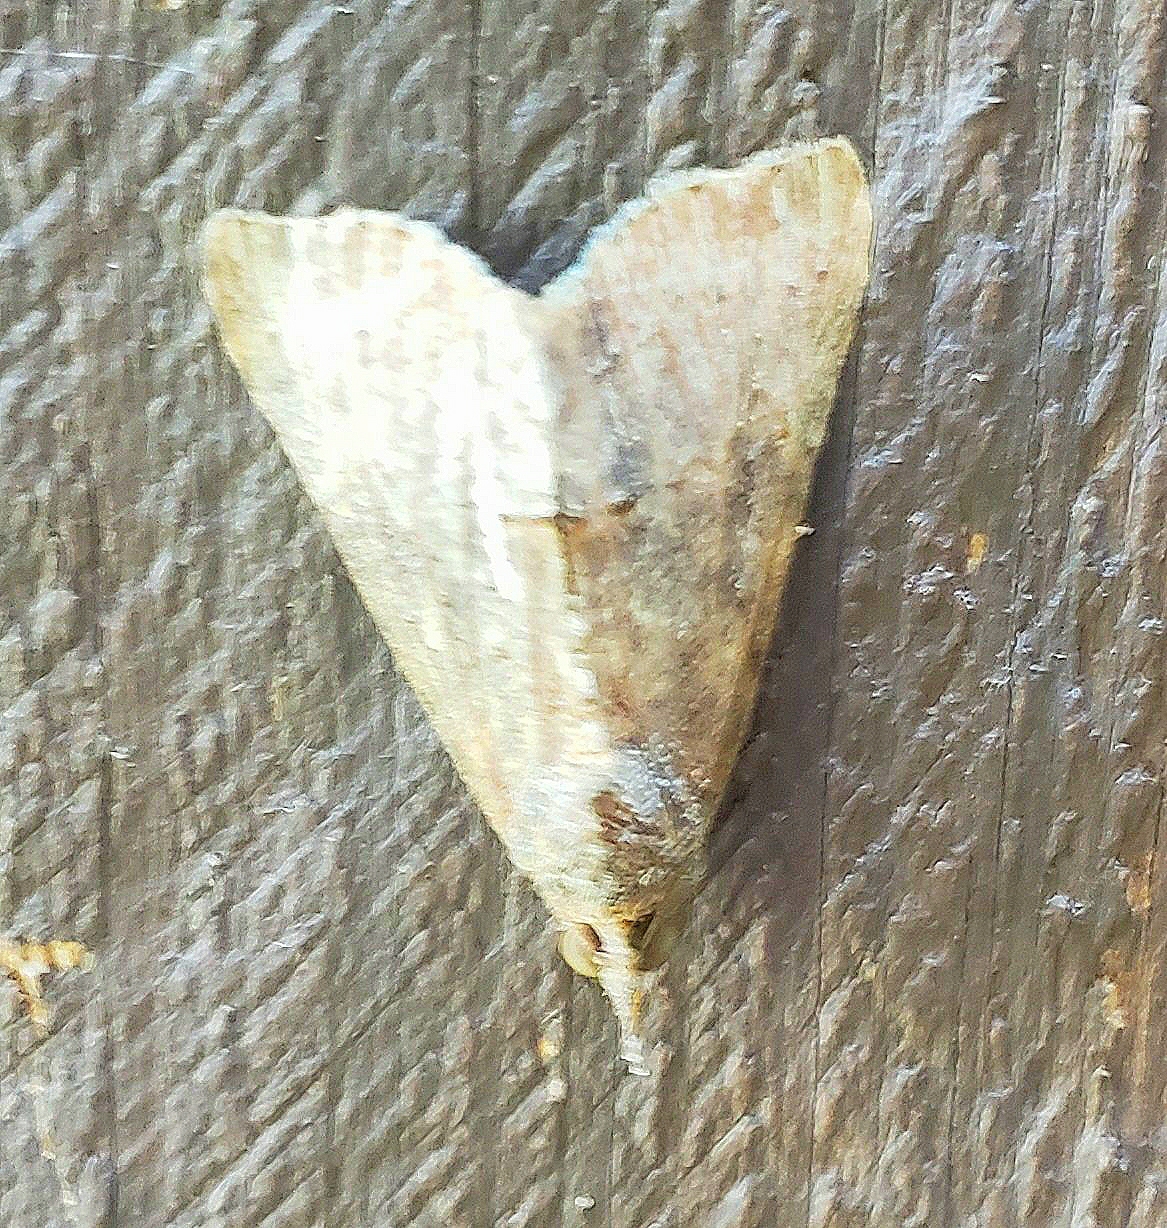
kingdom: Animalia
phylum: Arthropoda
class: Insecta
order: Lepidoptera
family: Erebidae
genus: Hypena
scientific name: Hypena scabra
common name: Green cloverworm
